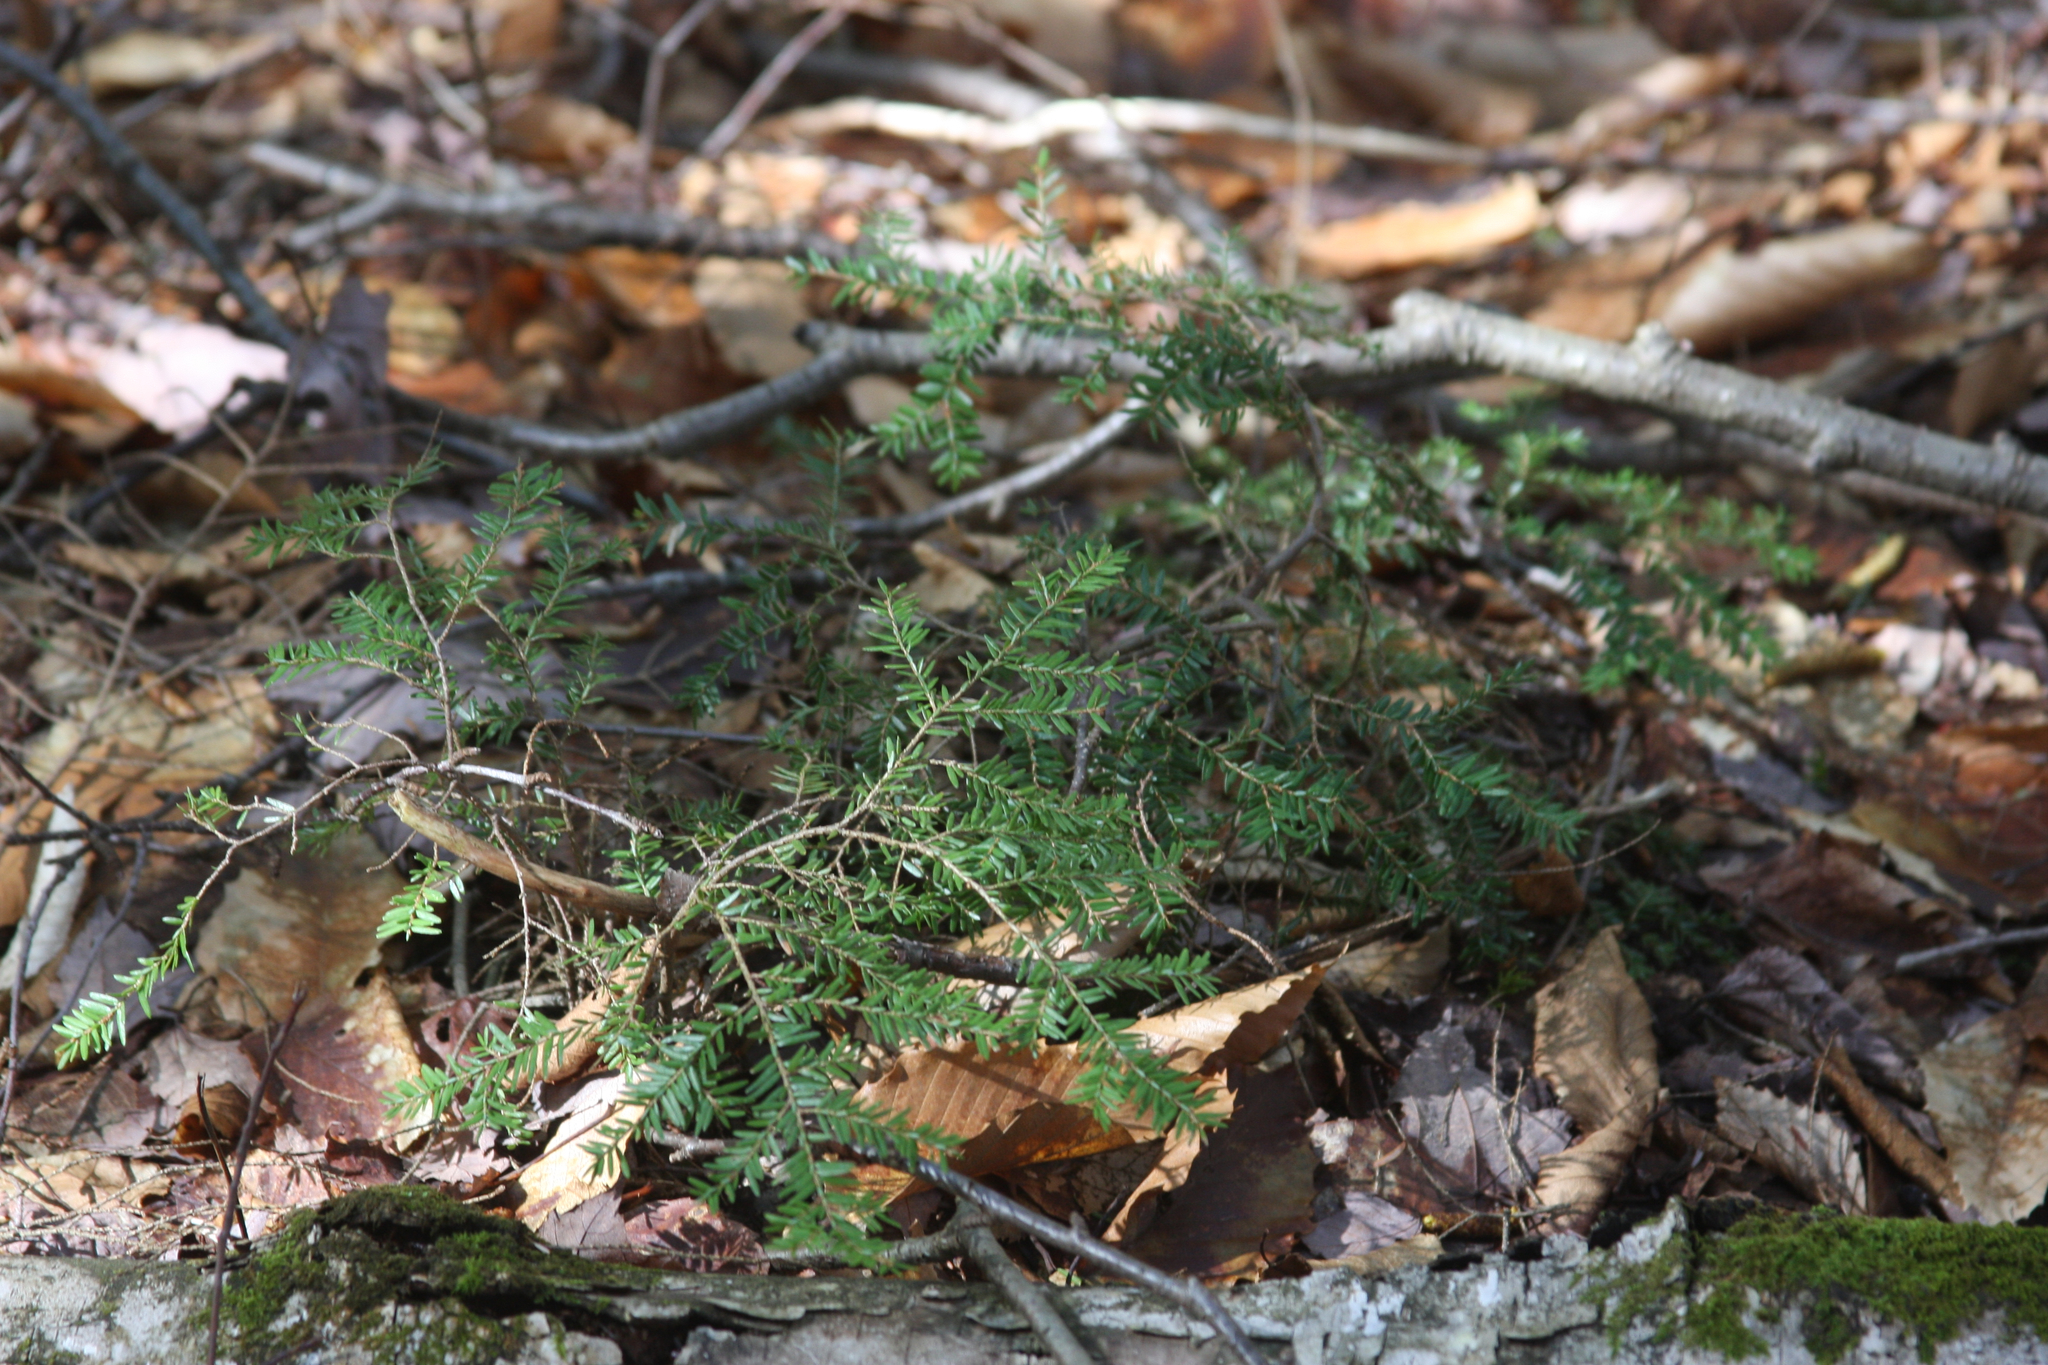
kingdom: Plantae
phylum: Tracheophyta
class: Pinopsida
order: Pinales
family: Pinaceae
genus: Tsuga
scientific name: Tsuga canadensis
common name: Eastern hemlock
